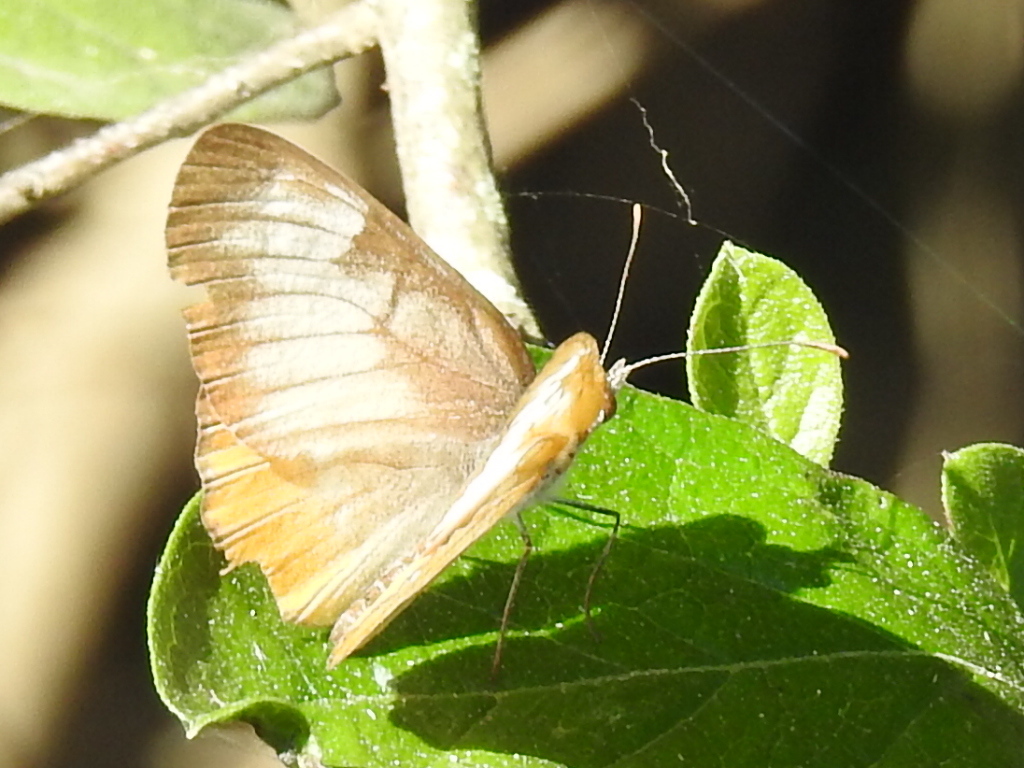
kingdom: Animalia
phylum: Arthropoda
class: Insecta
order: Lepidoptera
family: Nymphalidae
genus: Mestra
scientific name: Mestra amymone
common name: Common mestra
